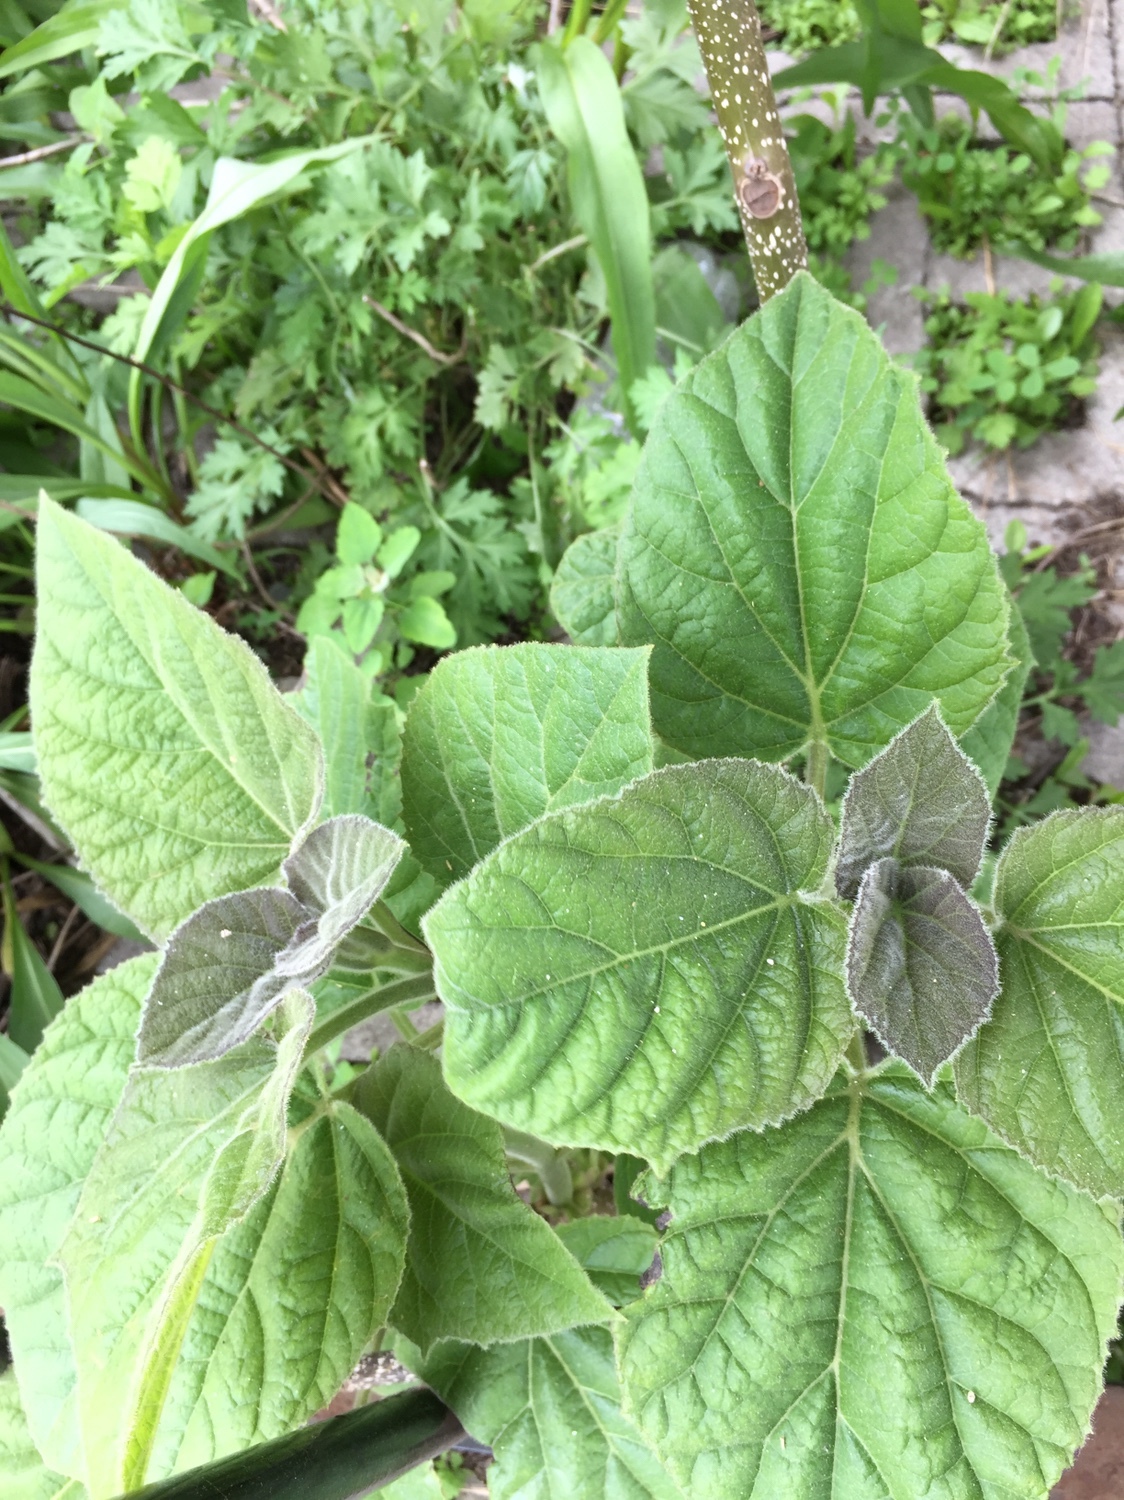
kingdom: Plantae
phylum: Tracheophyta
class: Magnoliopsida
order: Lamiales
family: Paulowniaceae
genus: Paulownia
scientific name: Paulownia tomentosa
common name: Foxglove-tree
